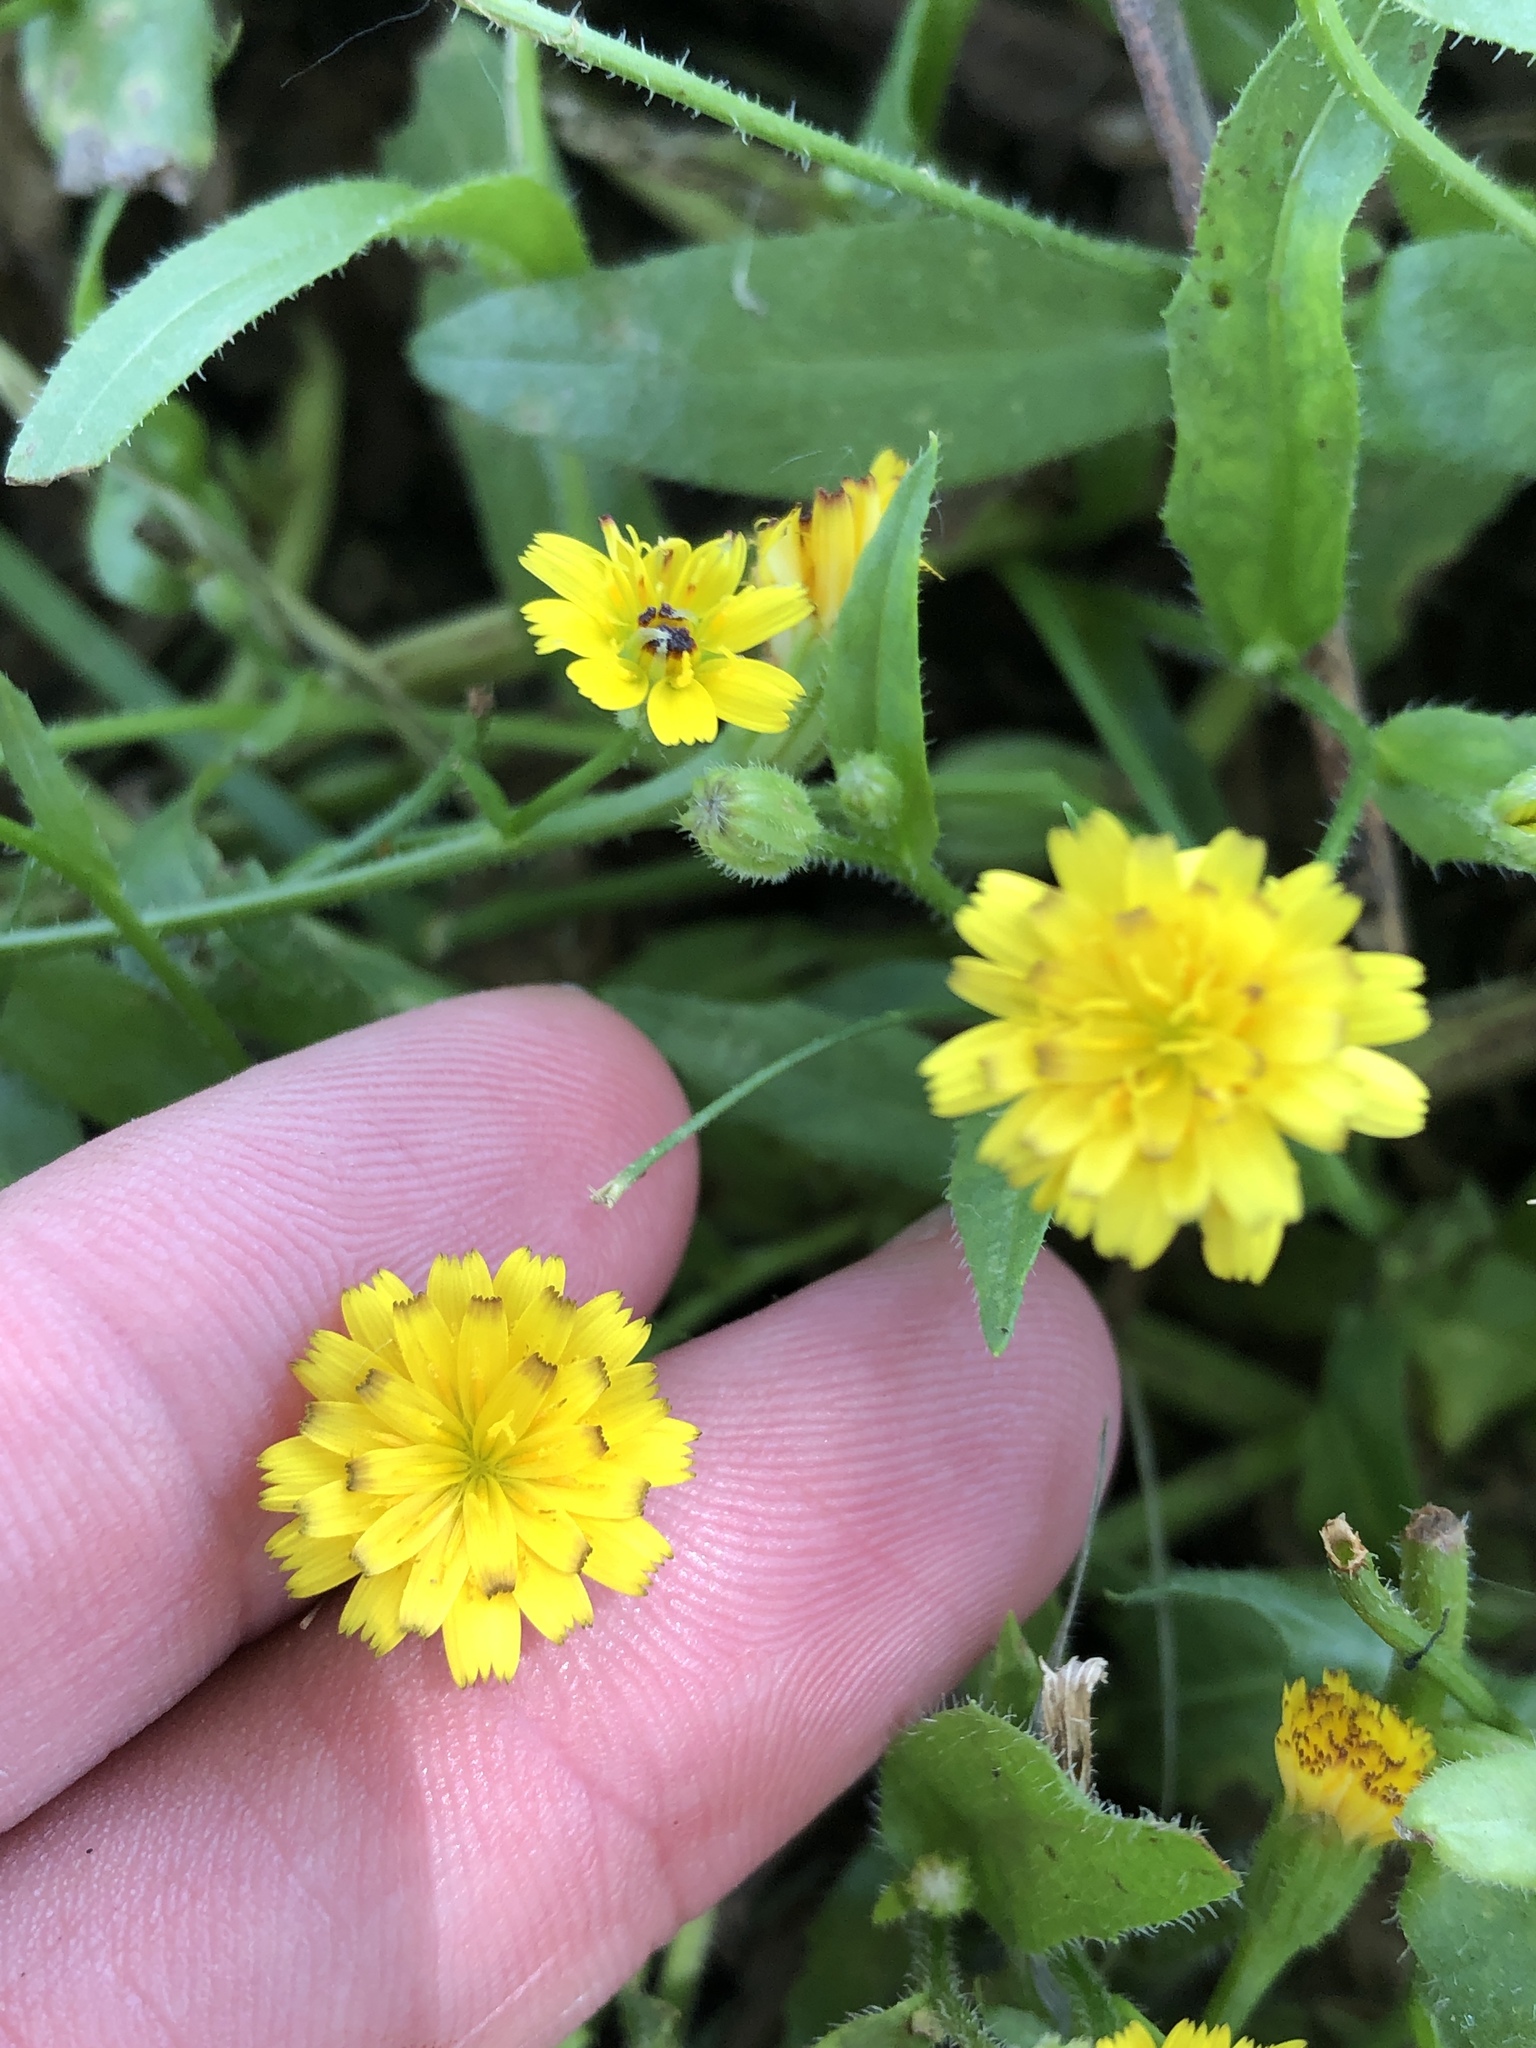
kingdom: Plantae
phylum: Tracheophyta
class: Magnoliopsida
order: Asterales
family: Asteraceae
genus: Hedypnois
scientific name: Hedypnois rhagadioloides
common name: Cretan weed
